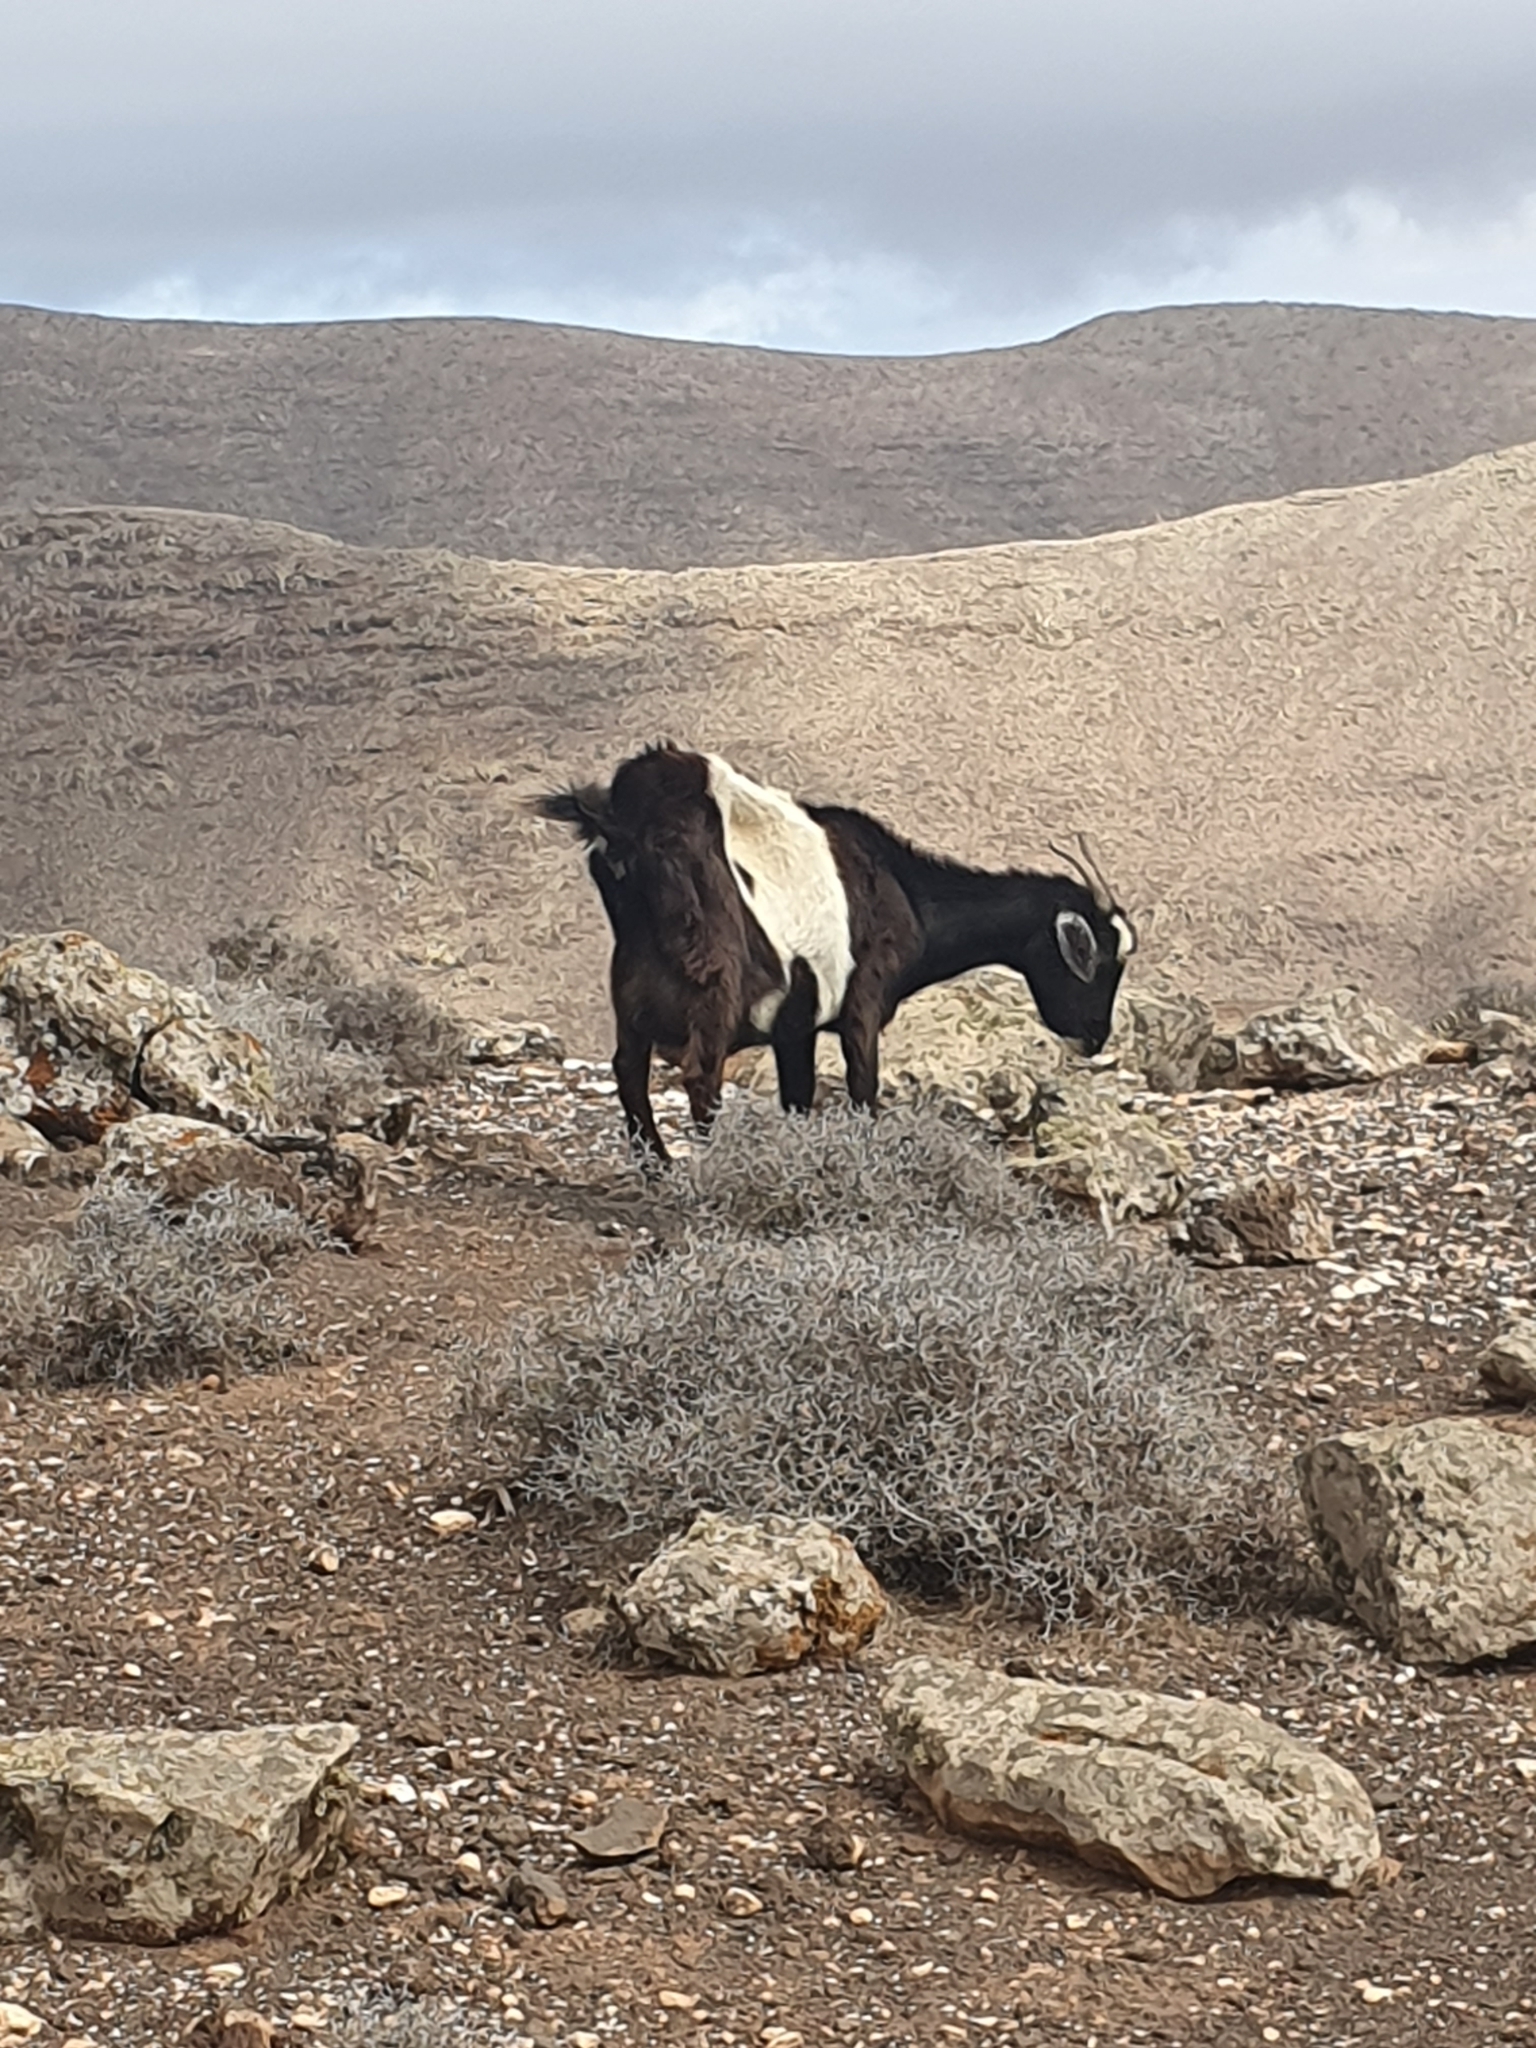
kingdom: Animalia
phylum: Chordata
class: Mammalia
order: Artiodactyla
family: Bovidae
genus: Capra
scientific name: Capra hircus
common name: Domestic goat
